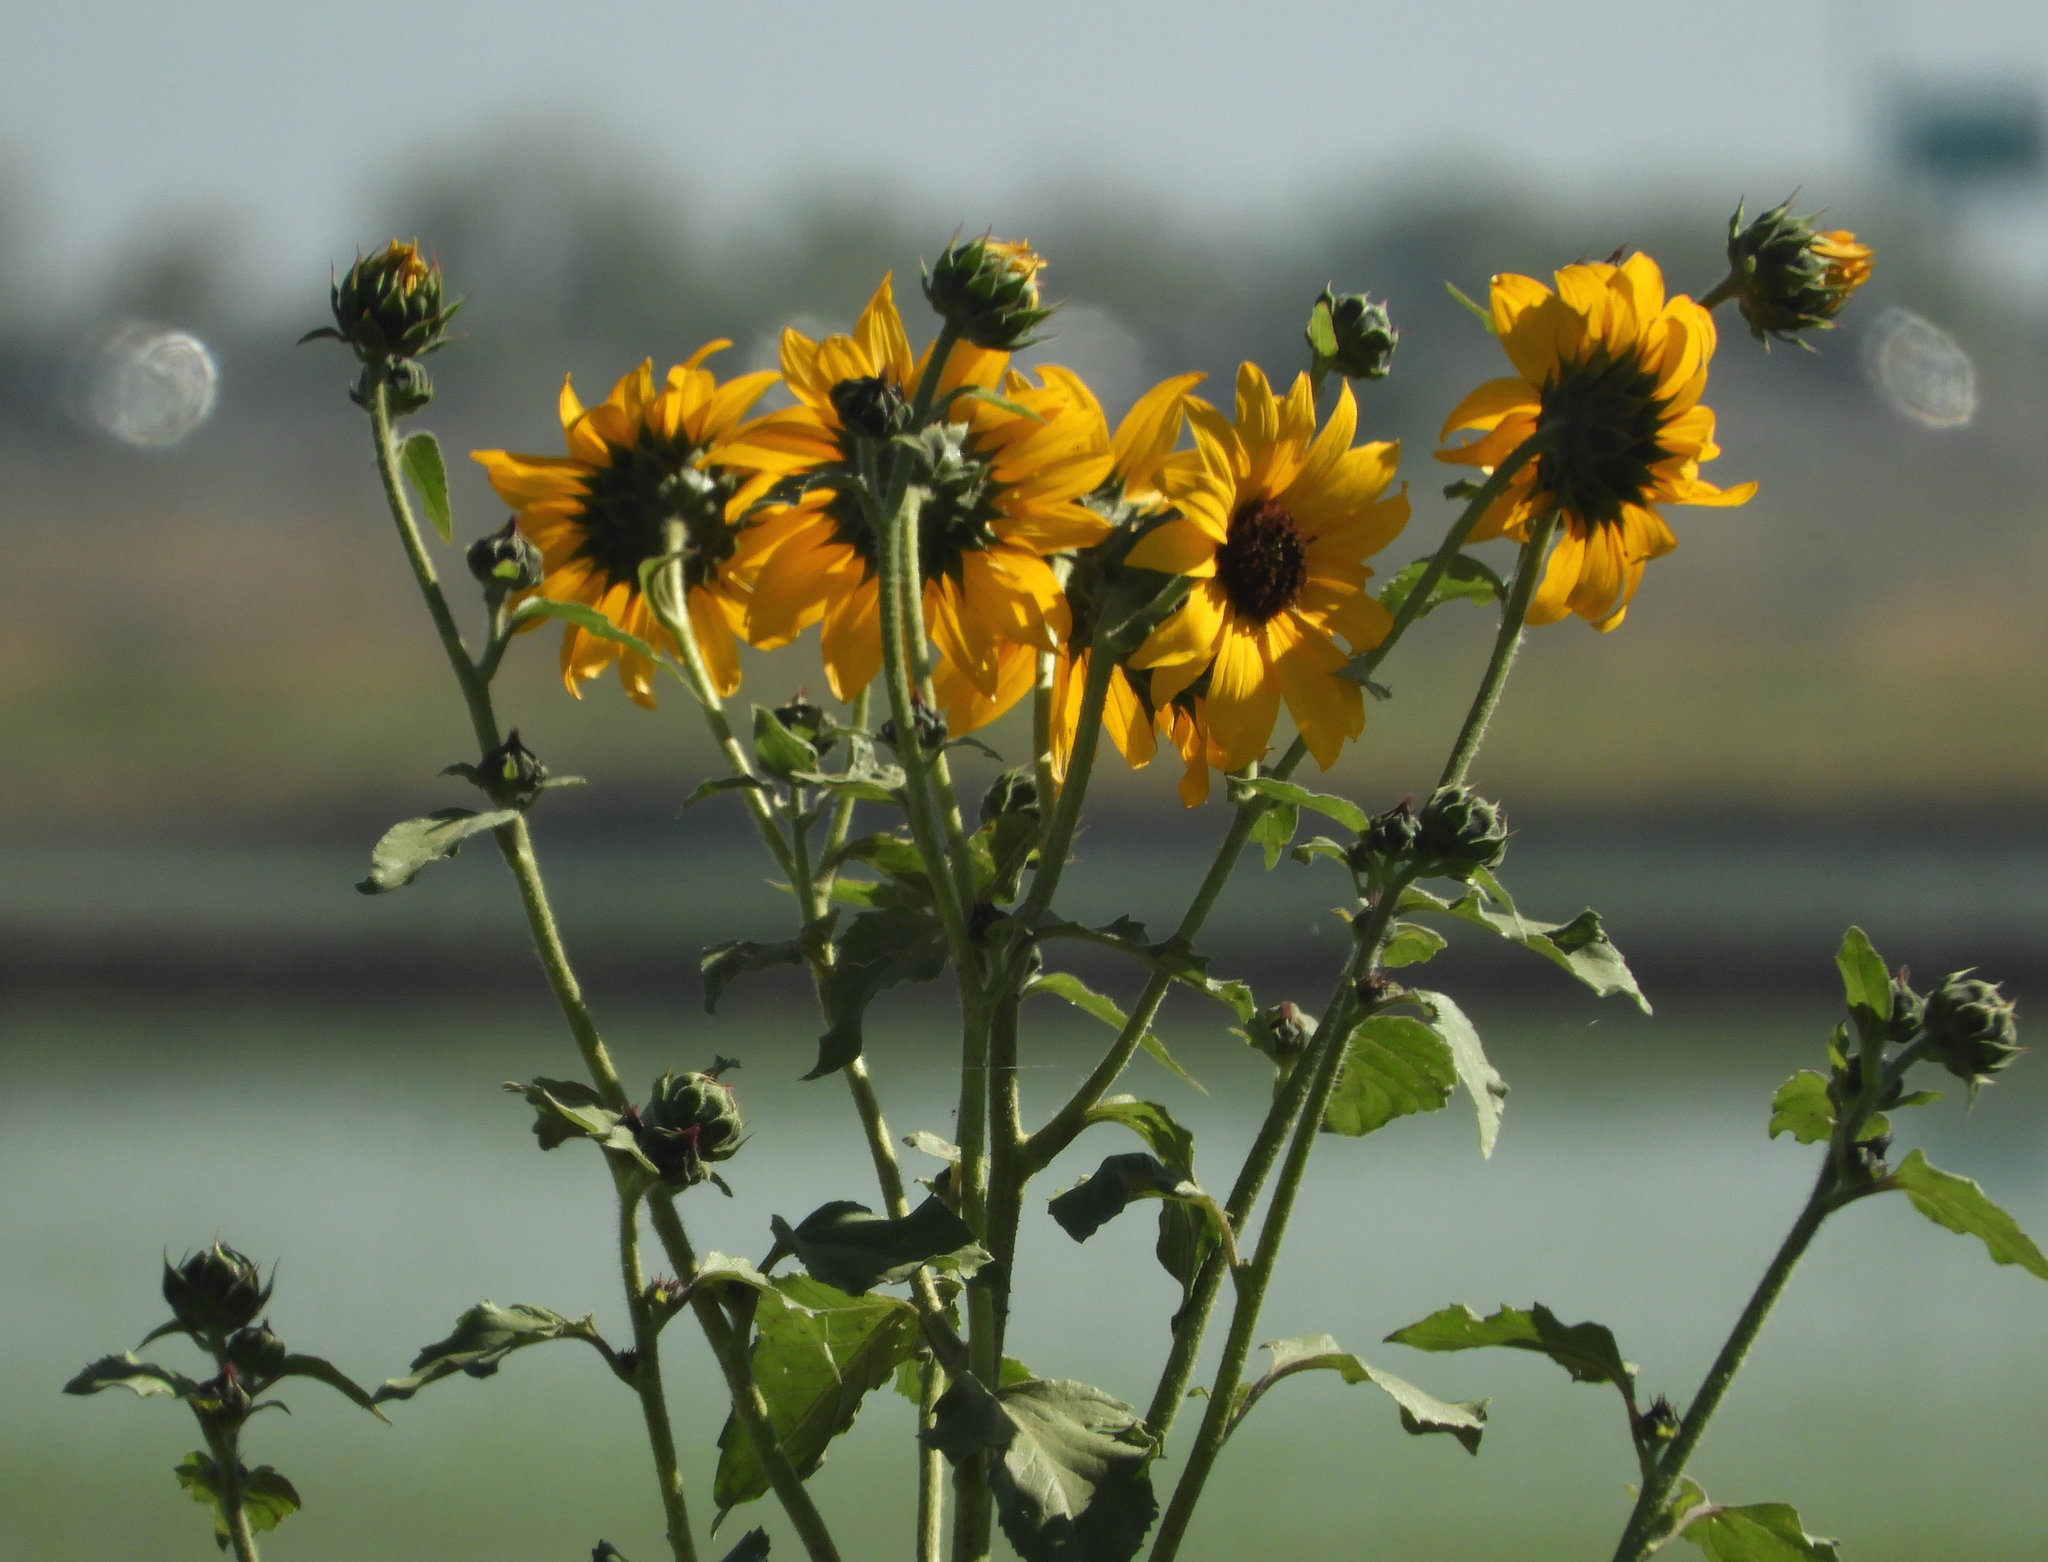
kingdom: Plantae
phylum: Tracheophyta
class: Magnoliopsida
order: Asterales
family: Asteraceae
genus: Helianthus
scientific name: Helianthus annuus
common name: Sunflower
